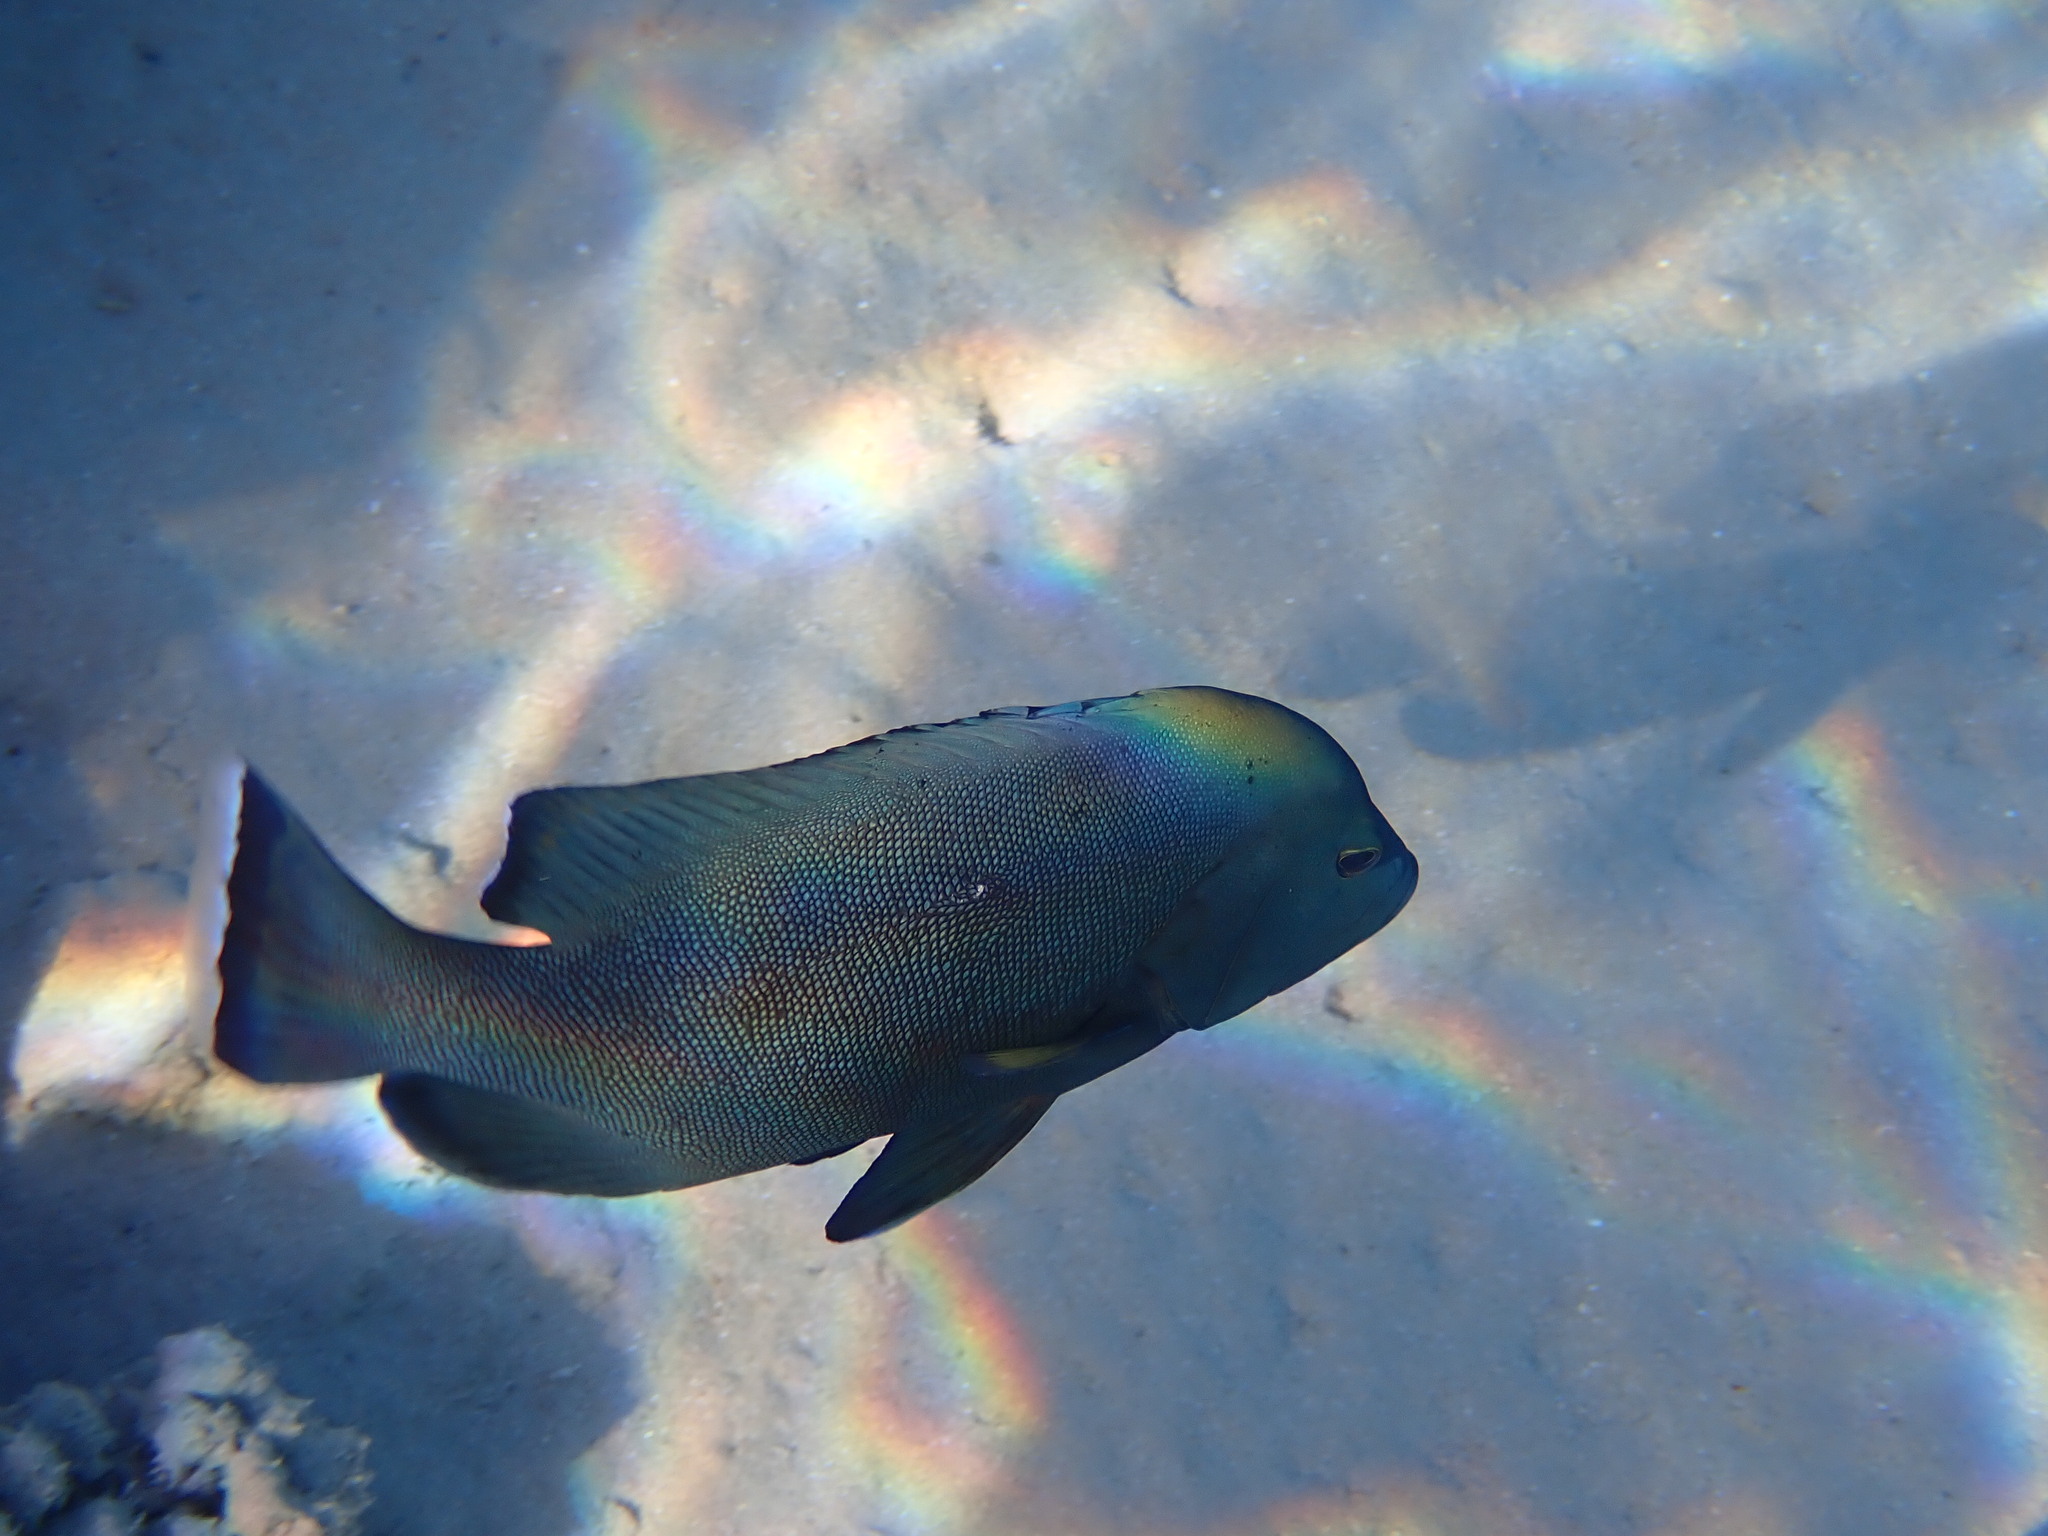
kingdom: Animalia
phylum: Chordata
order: Perciformes
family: Serranidae
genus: Cephalopholis
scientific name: Cephalopholis hemistiktos
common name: Halfspotted hind
